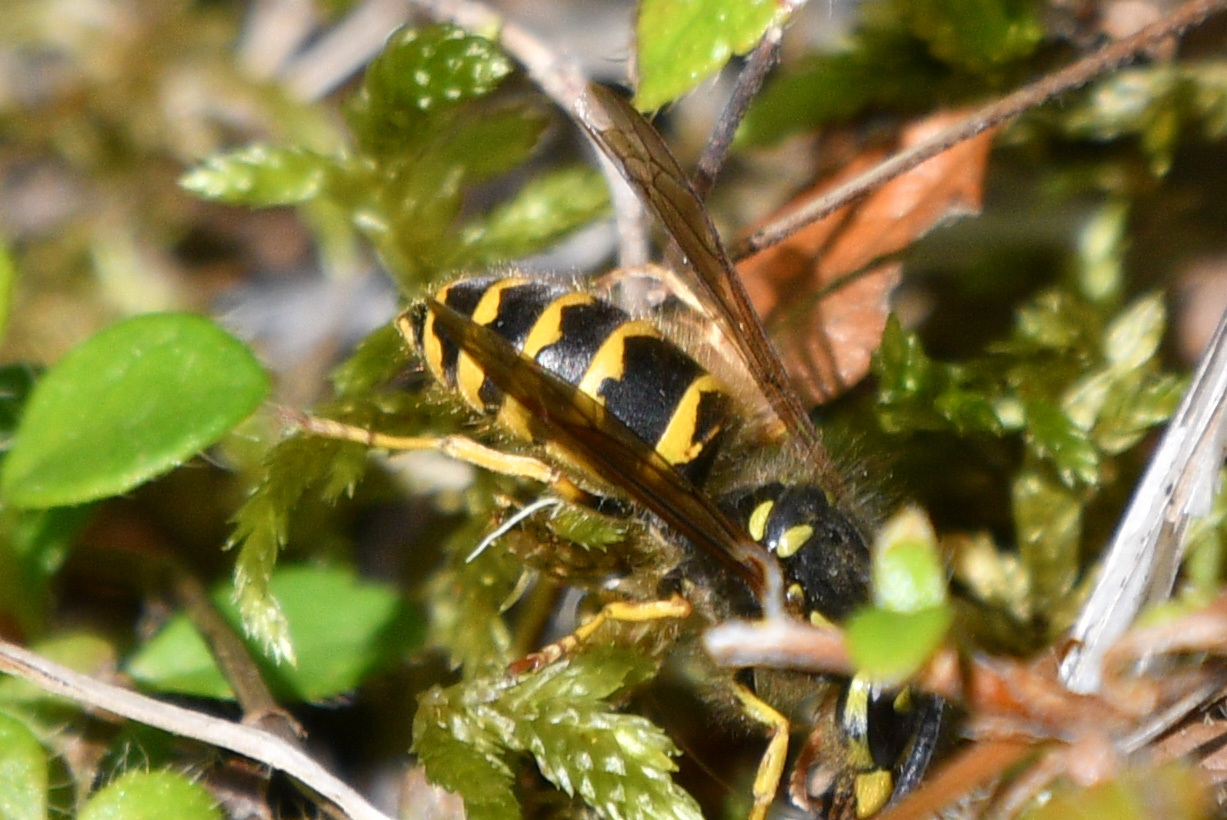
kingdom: Animalia
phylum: Arthropoda
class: Insecta
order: Hymenoptera
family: Vespidae
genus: Vespula
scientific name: Vespula alascensis
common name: Alaska yellowjacket
